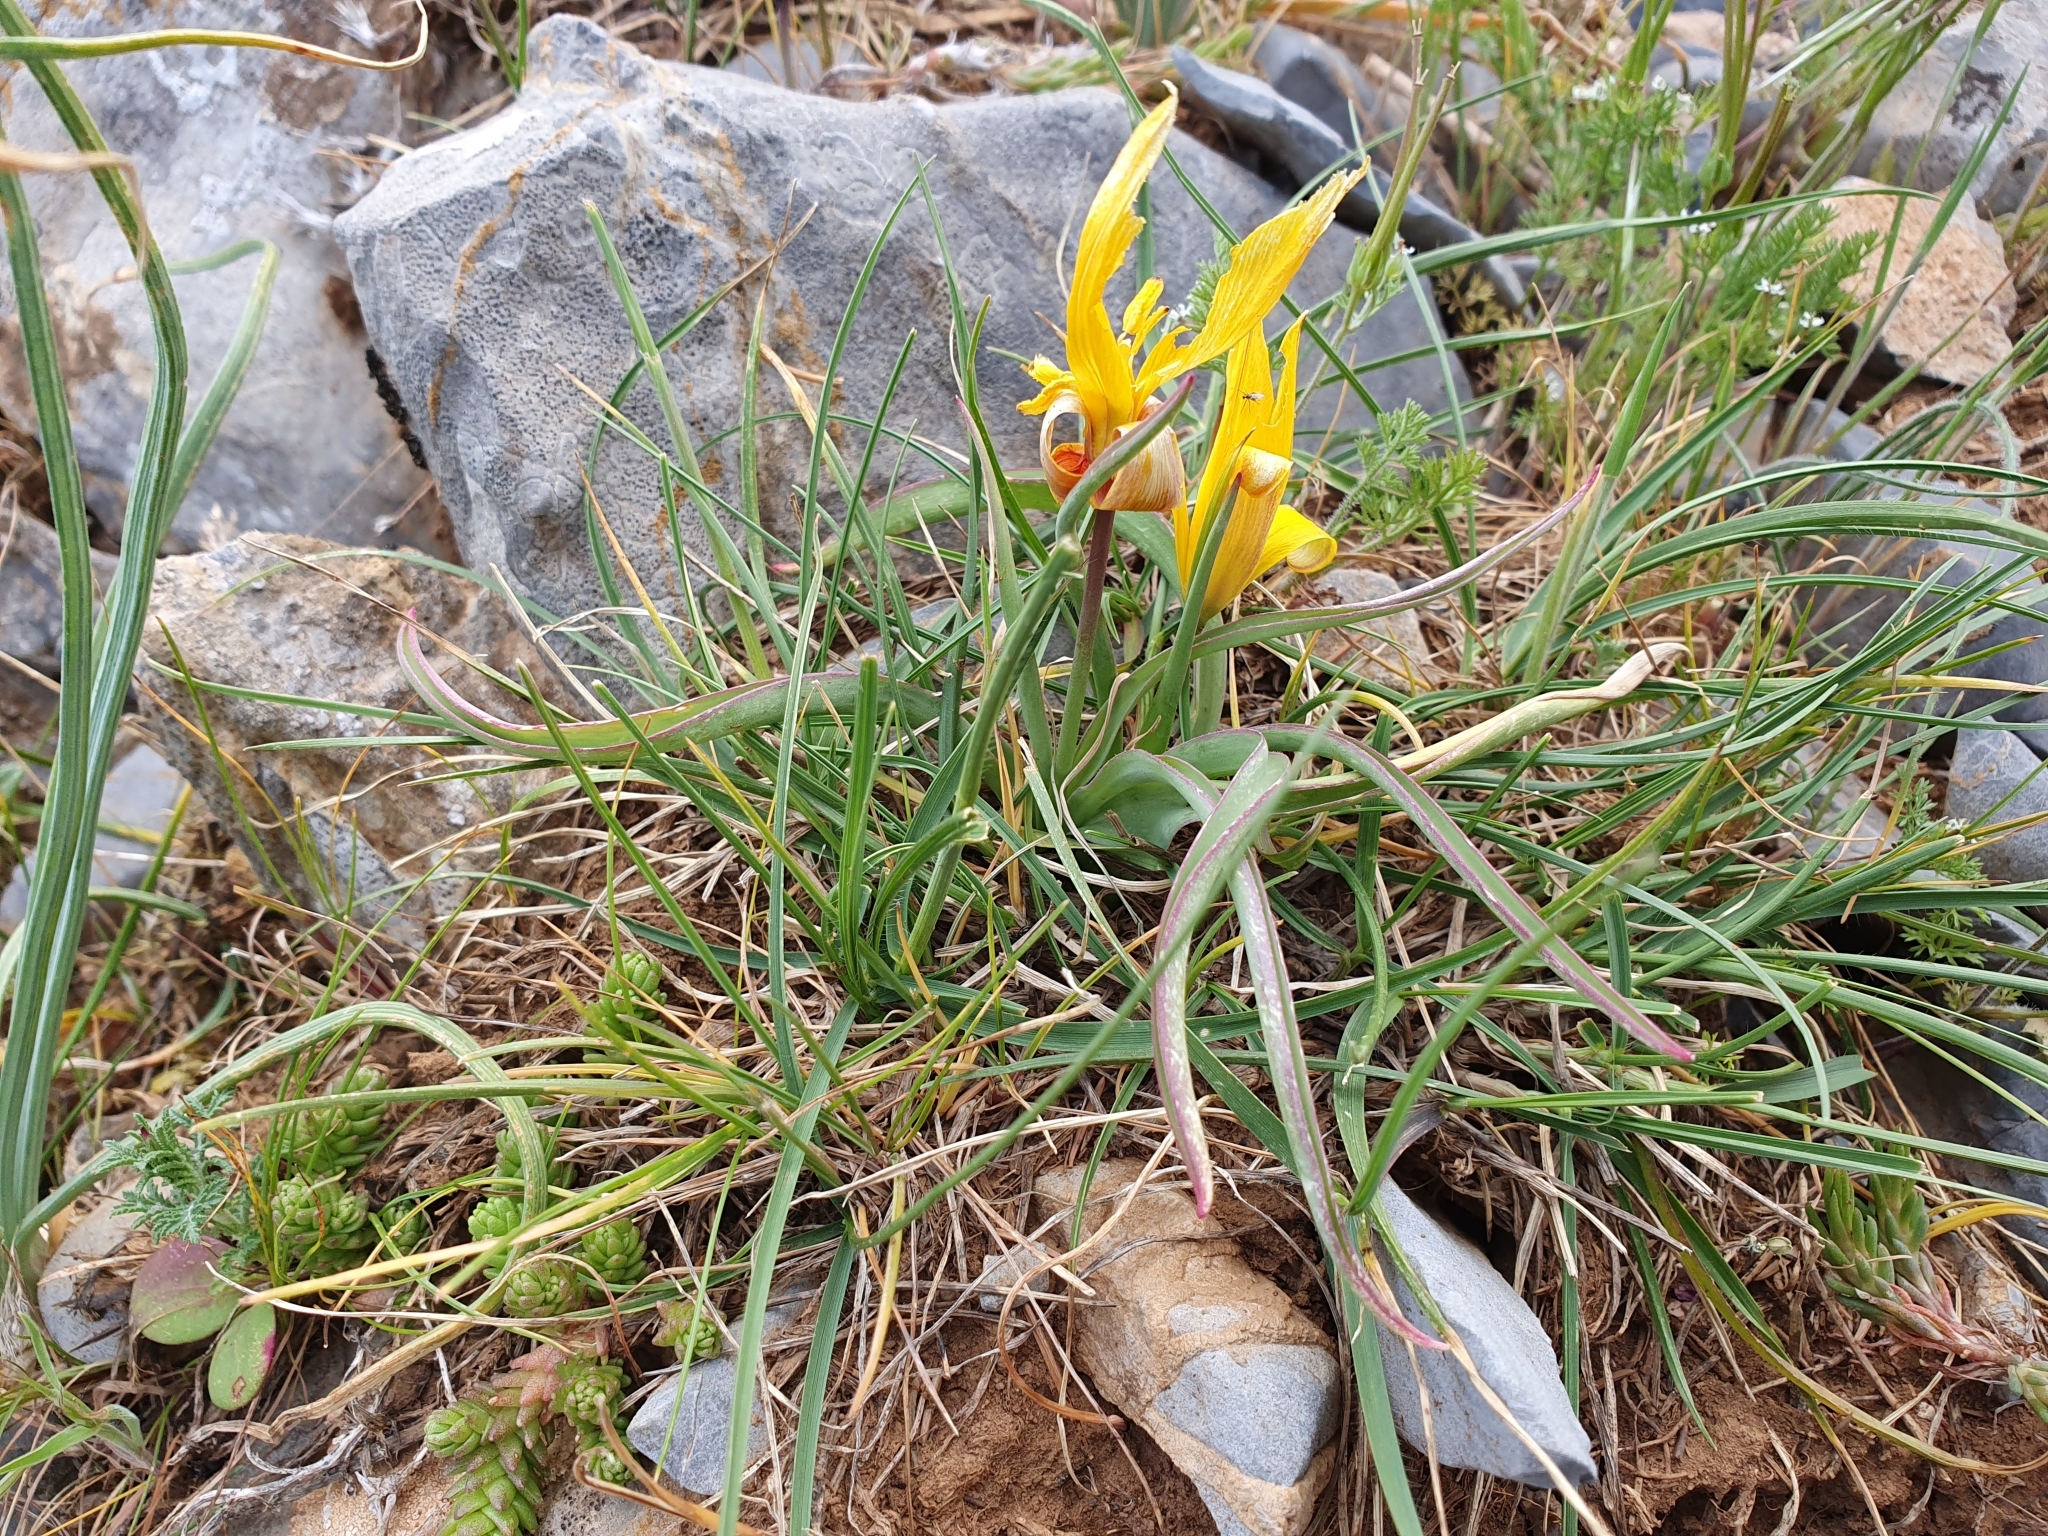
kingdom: Plantae
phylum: Tracheophyta
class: Liliopsida
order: Liliales
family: Liliaceae
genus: Tulipa
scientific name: Tulipa sylvestris
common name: Wild tulip
